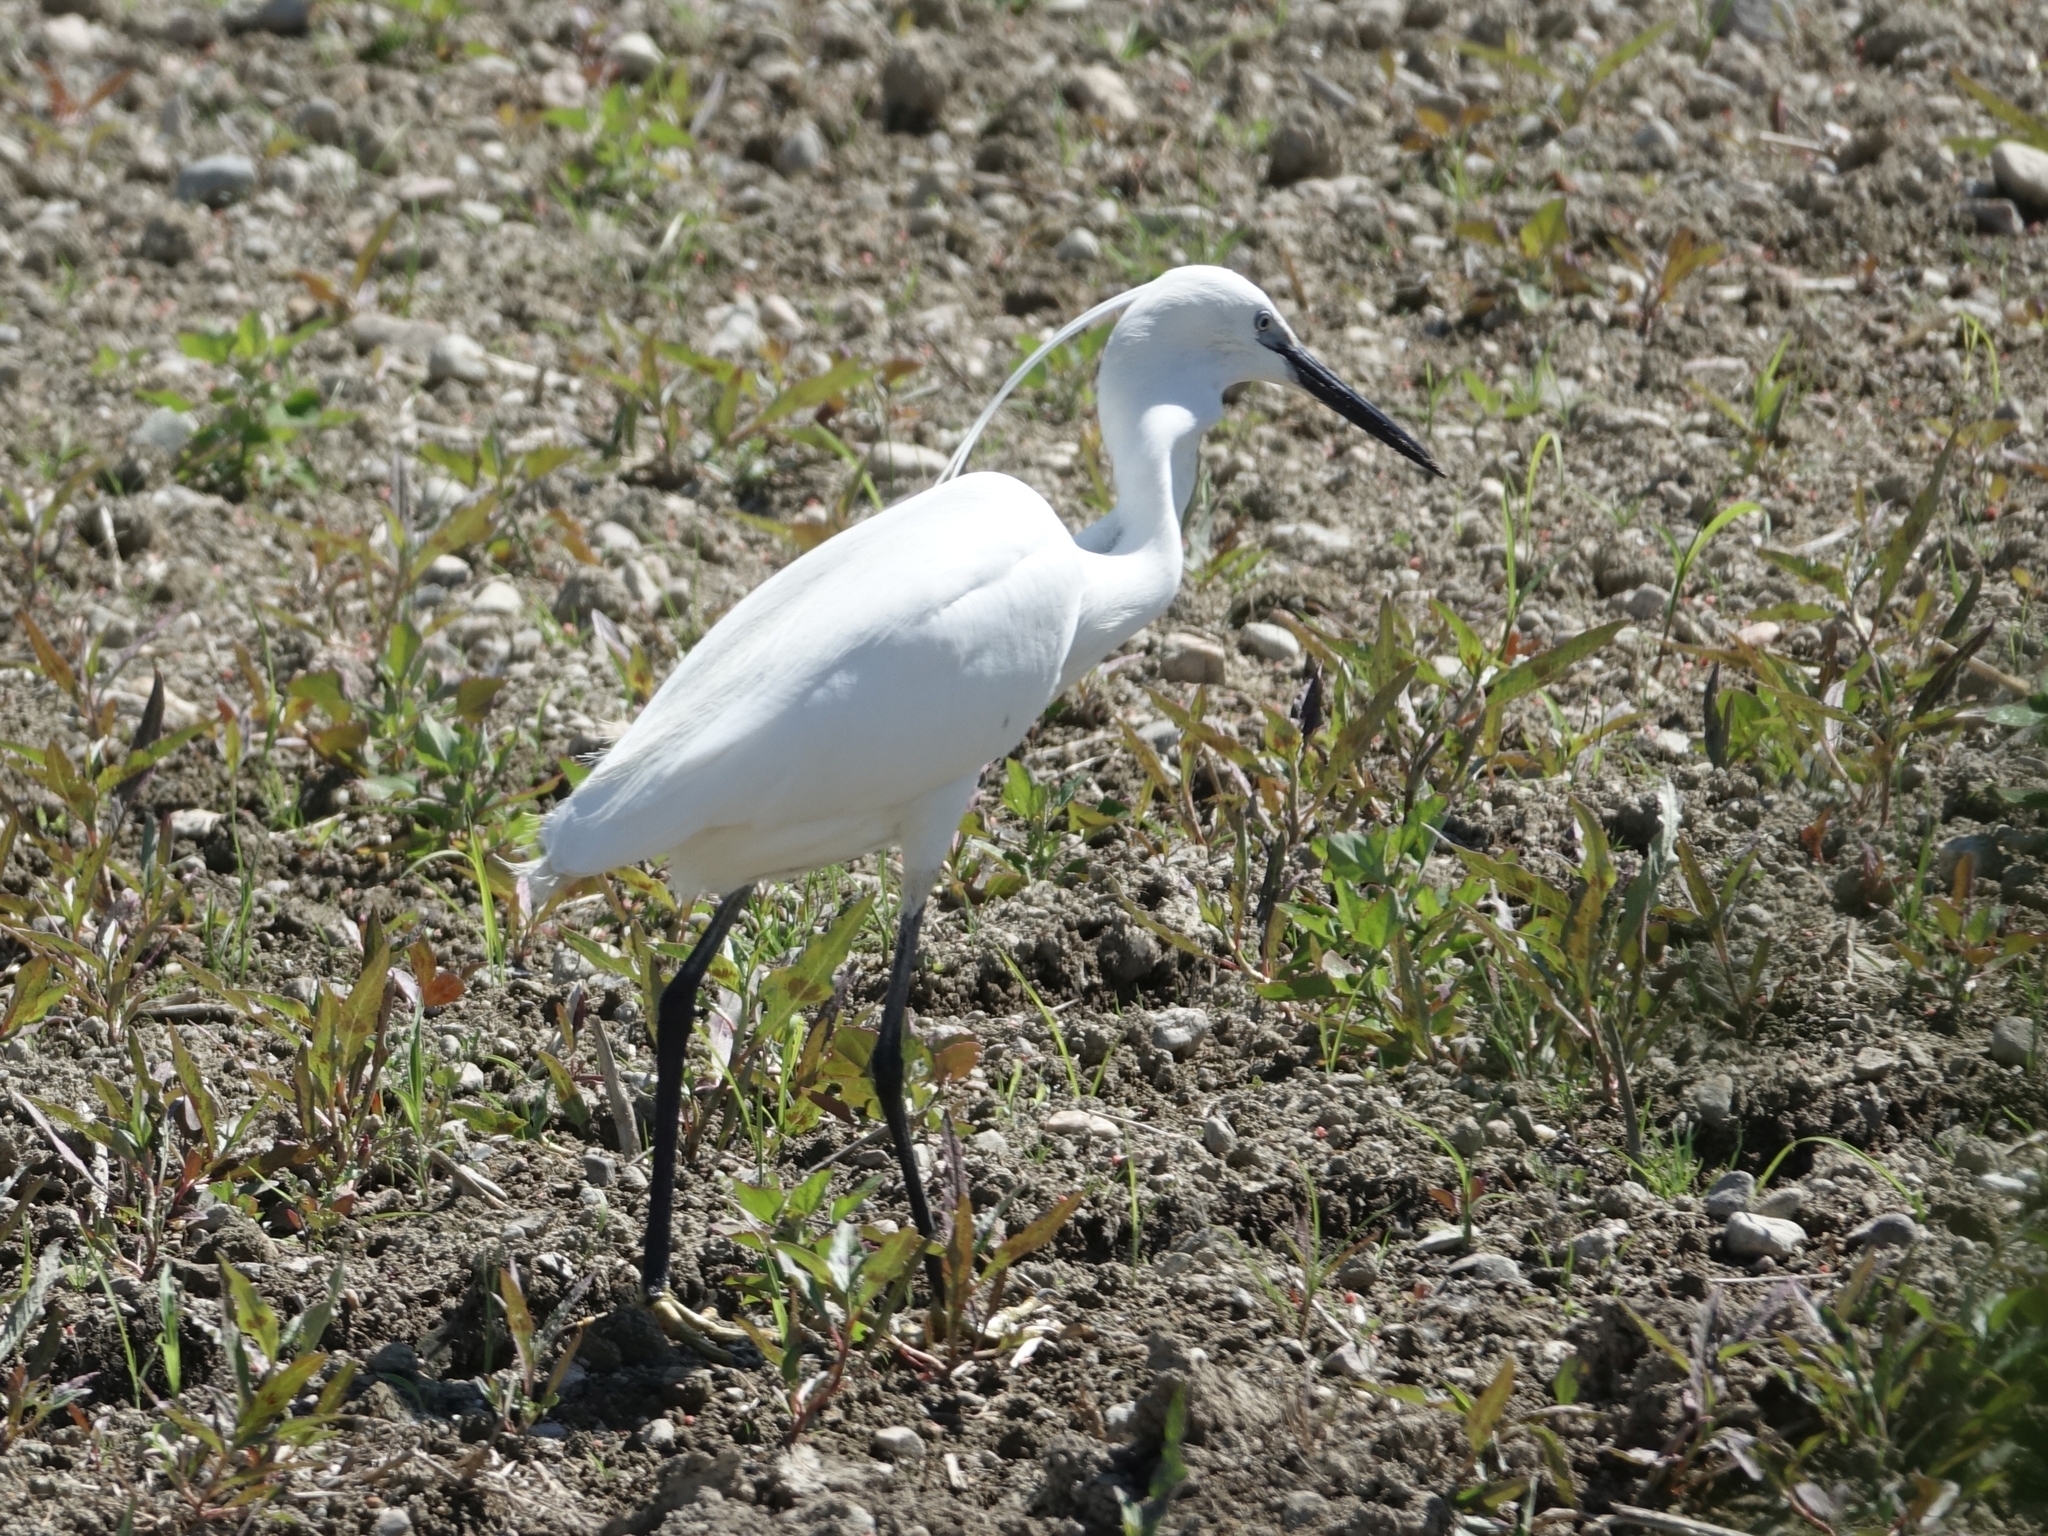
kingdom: Animalia
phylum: Chordata
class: Aves
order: Pelecaniformes
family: Ardeidae
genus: Egretta
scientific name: Egretta garzetta
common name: Little egret
